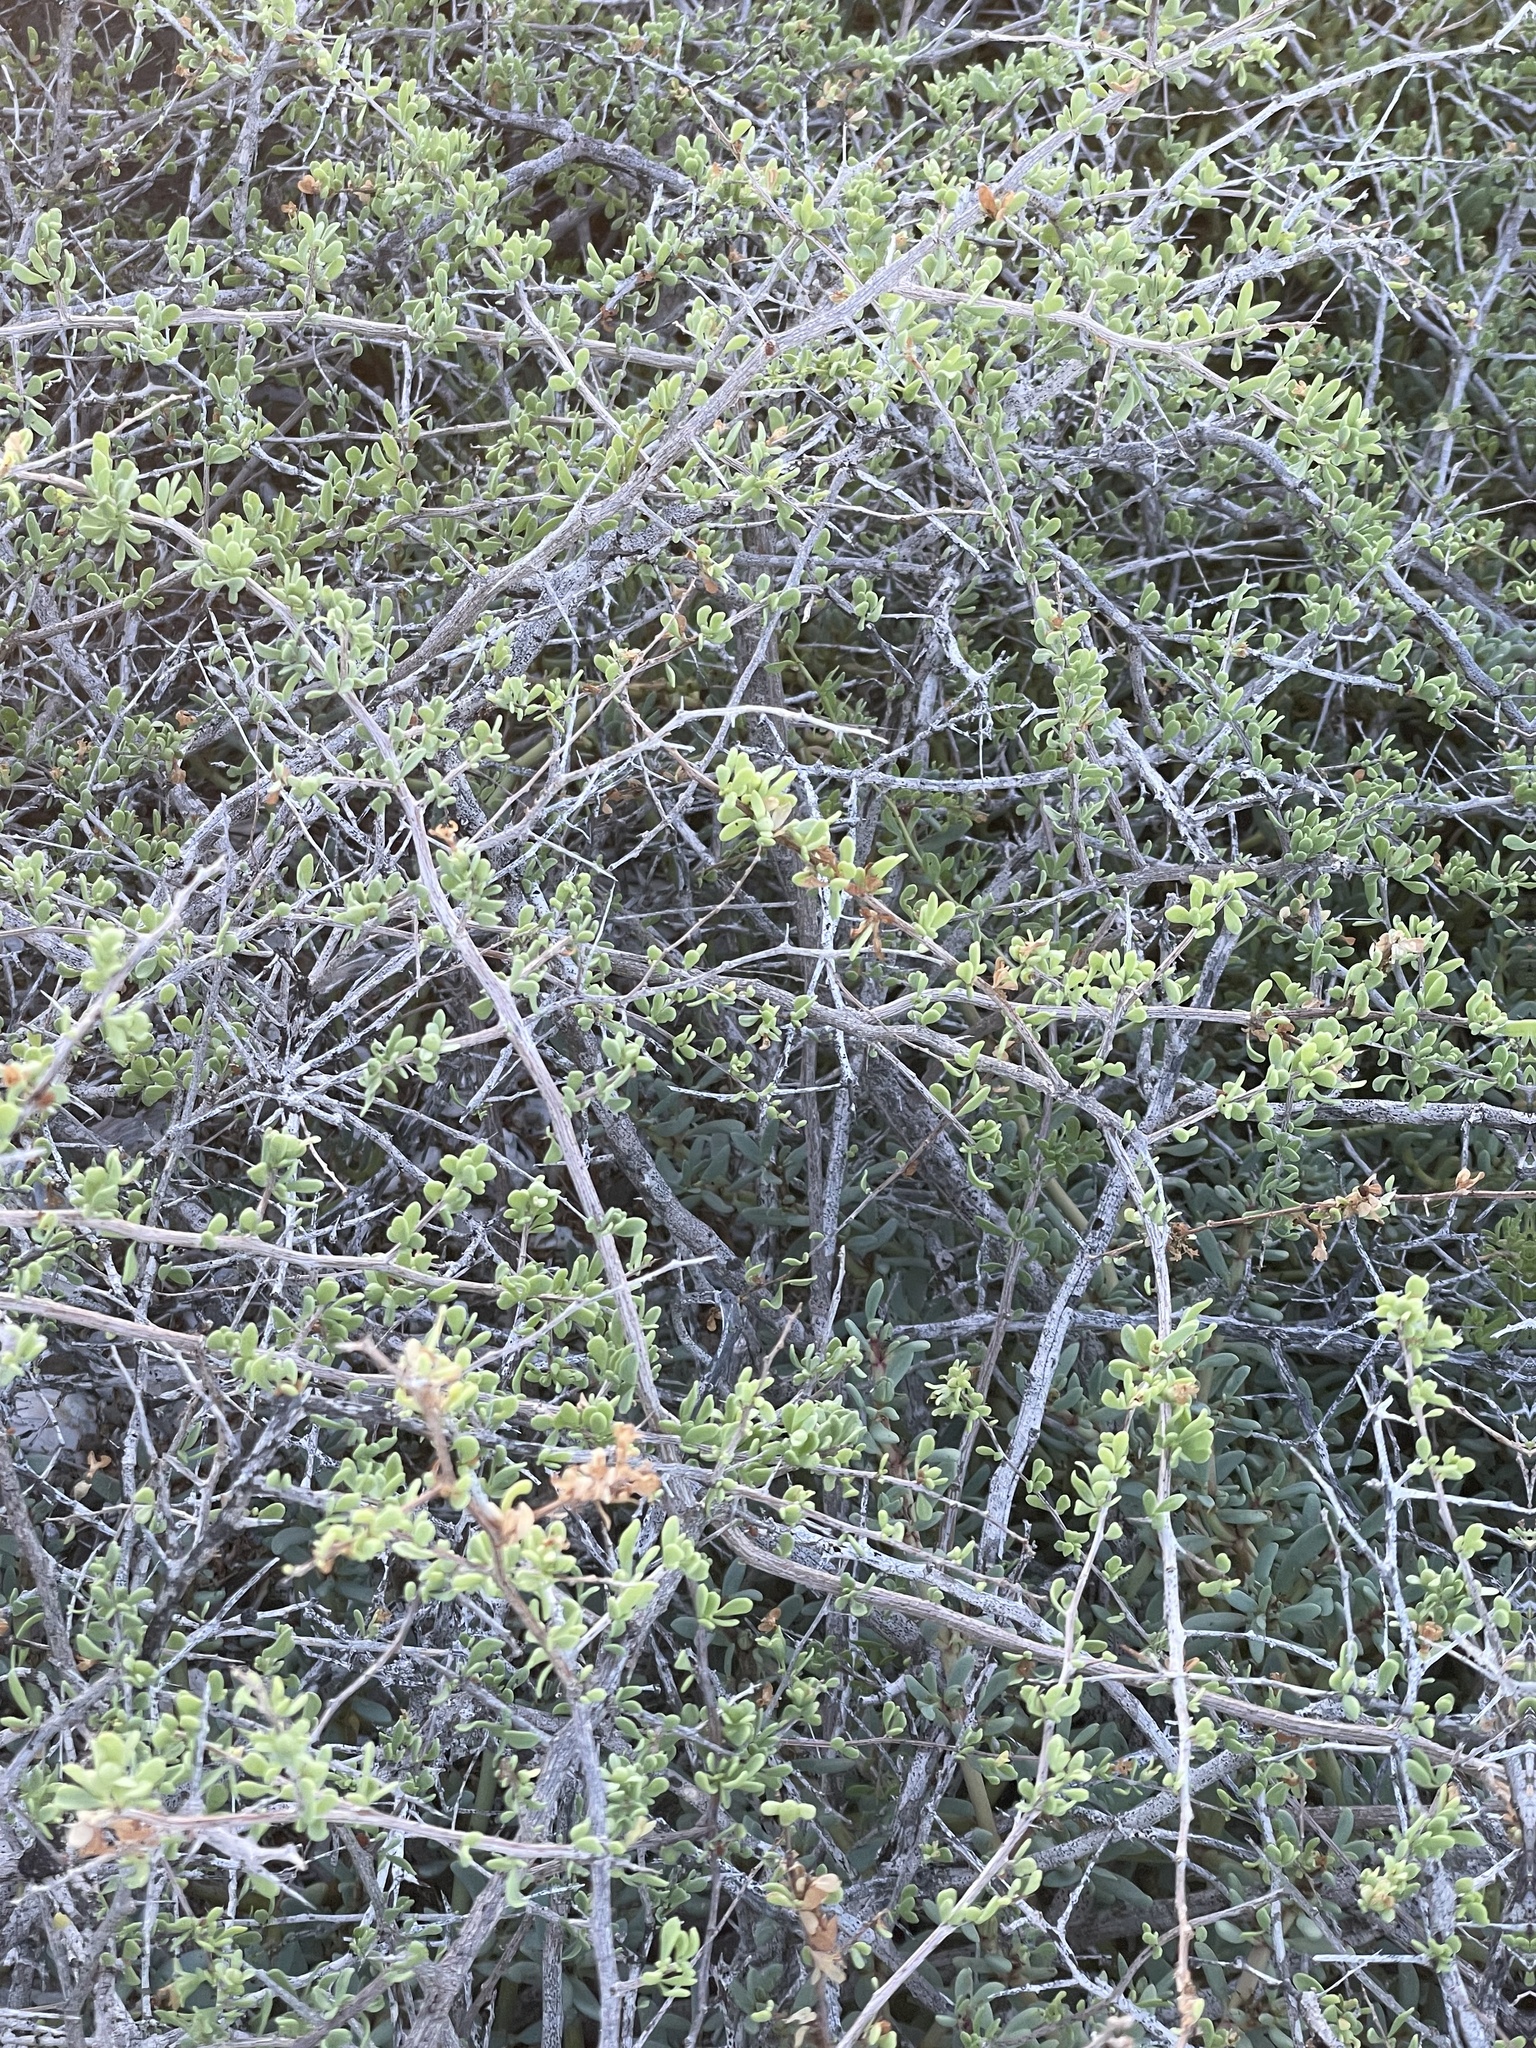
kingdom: Plantae
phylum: Tracheophyta
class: Magnoliopsida
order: Solanales
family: Solanaceae
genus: Lycium
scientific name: Lycium brevipes
